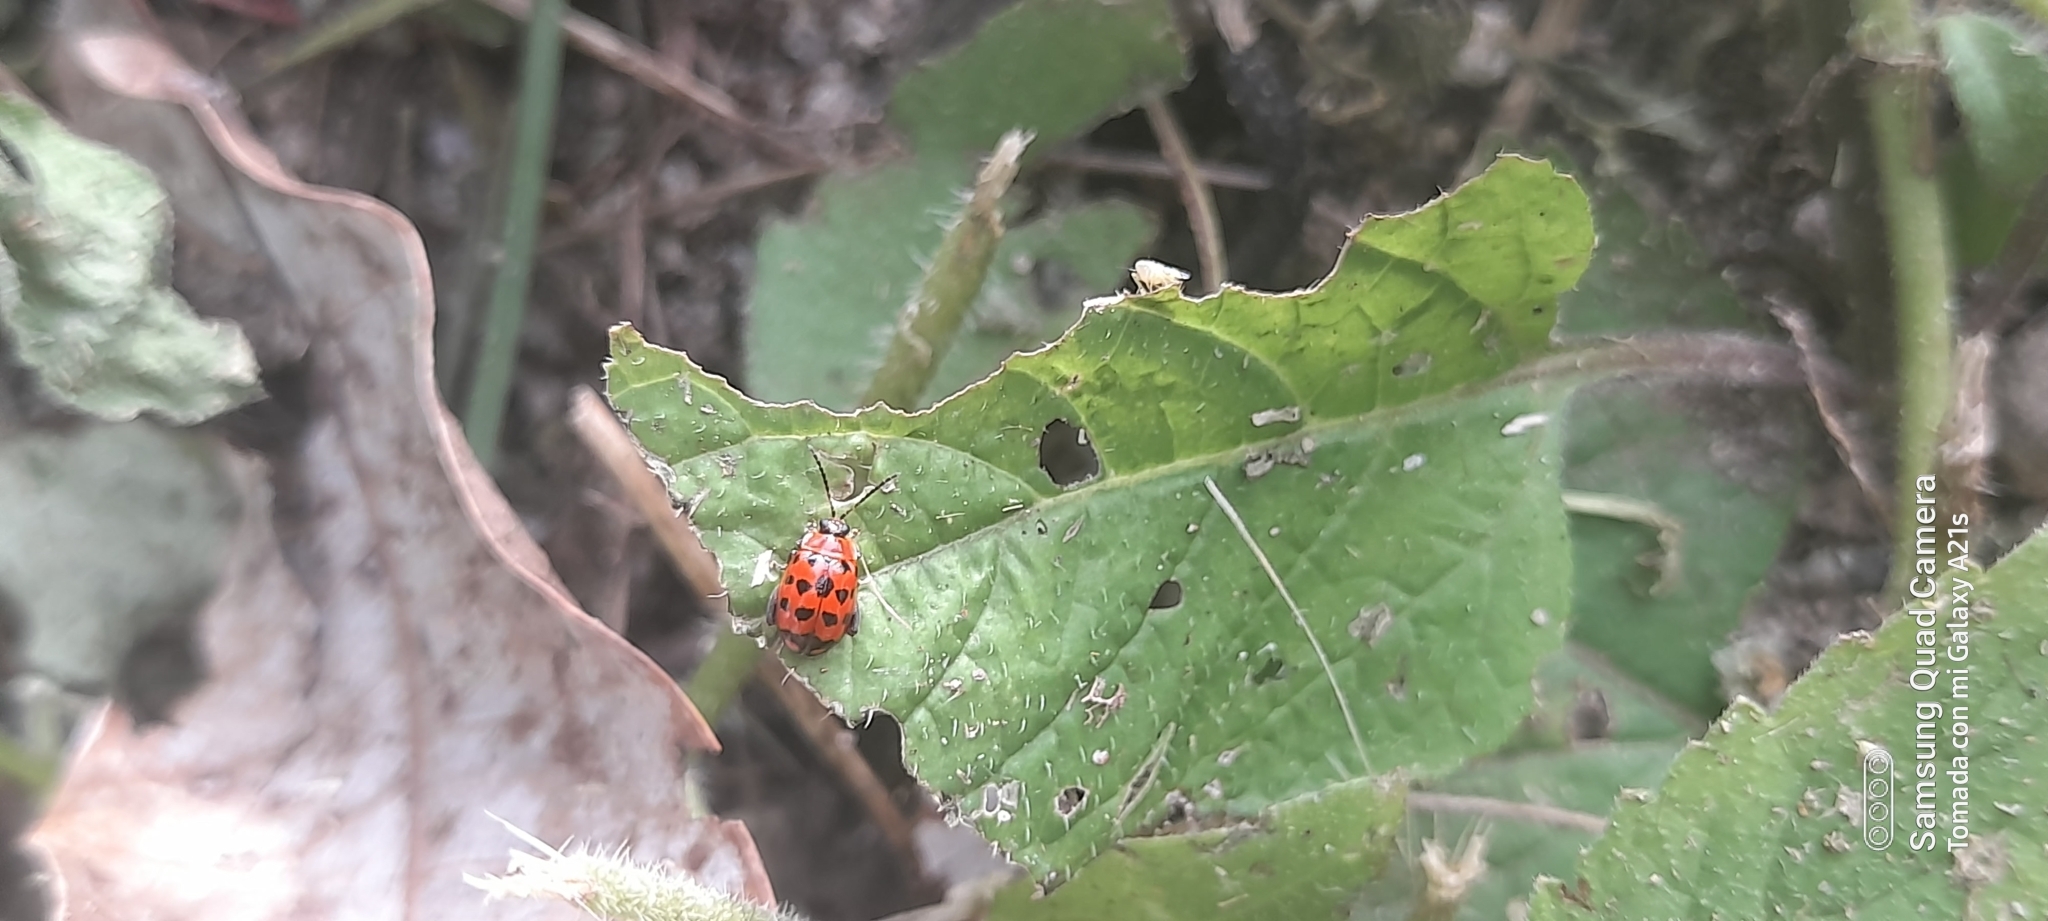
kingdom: Animalia
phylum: Arthropoda
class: Insecta
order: Coleoptera
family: Chrysomelidae
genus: Alagoasa
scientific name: Alagoasa trifasciata
